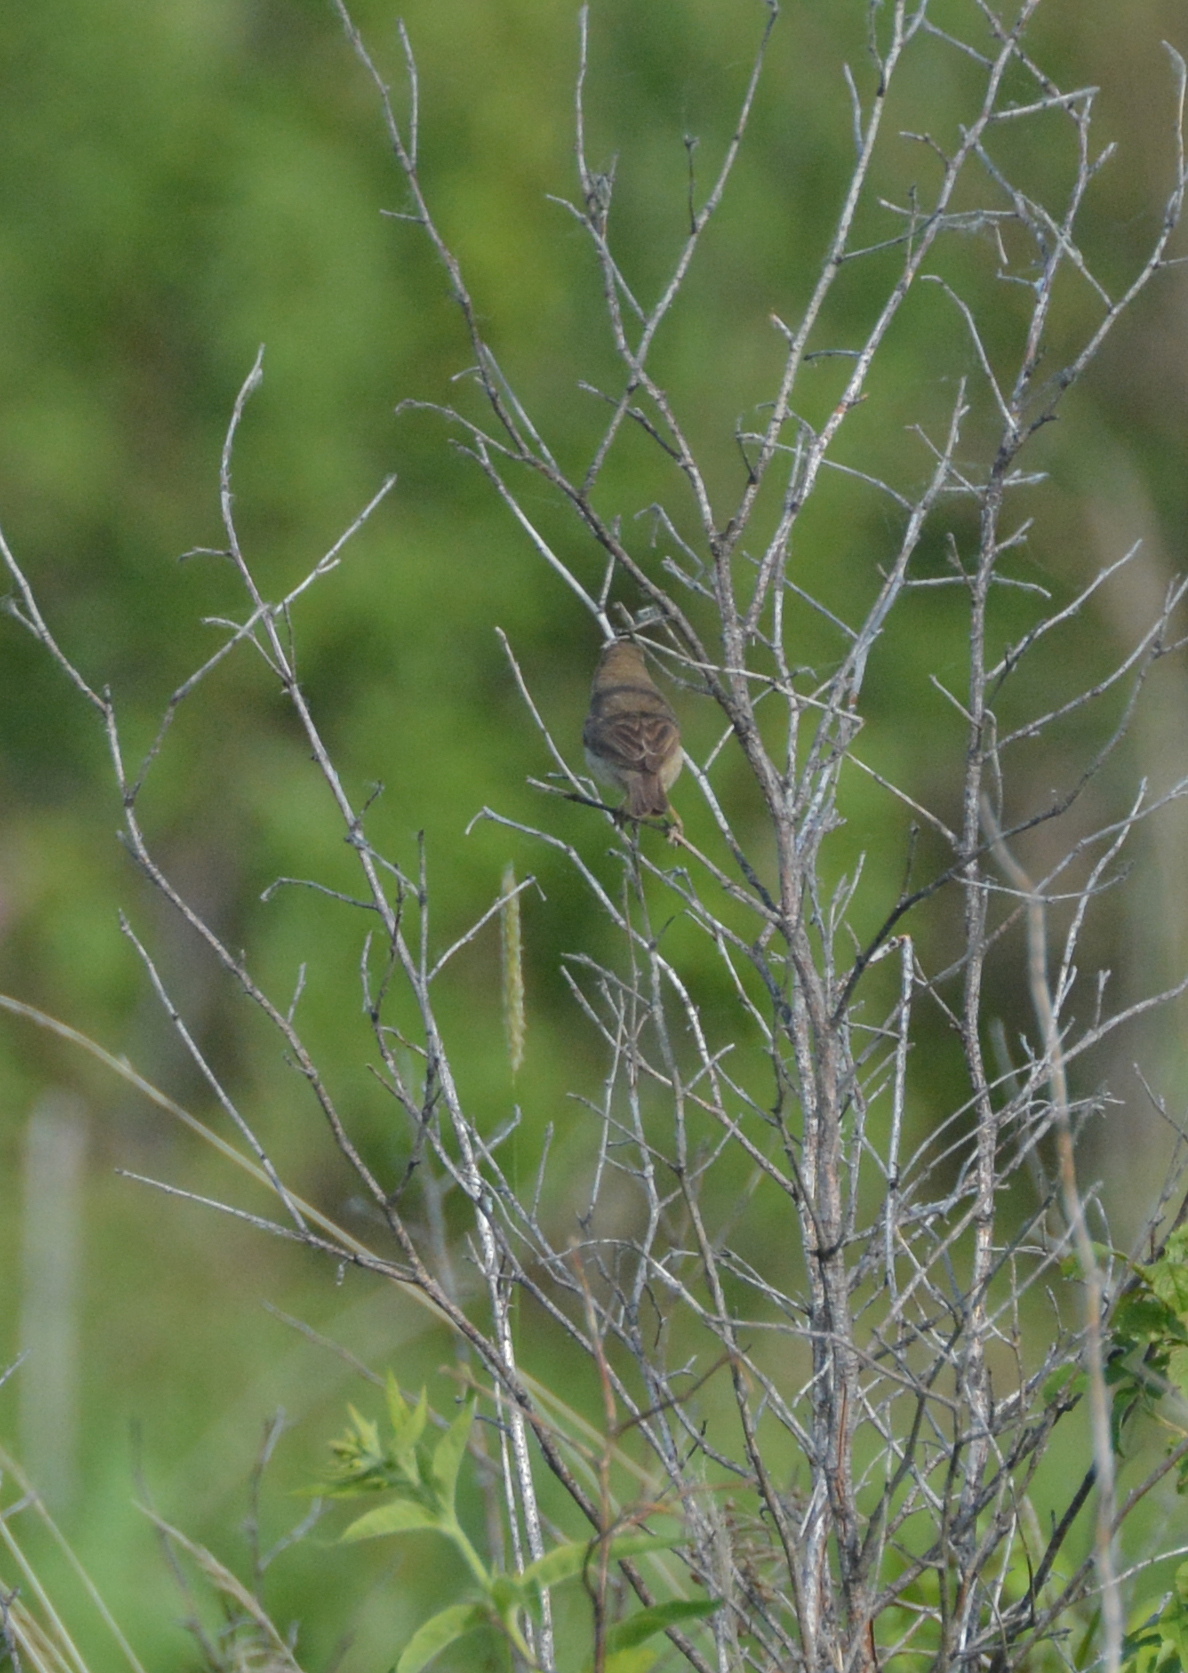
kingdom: Animalia
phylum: Chordata
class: Aves
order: Passeriformes
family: Acrocephalidae
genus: Iduna
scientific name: Iduna caligata
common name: Booted warbler
